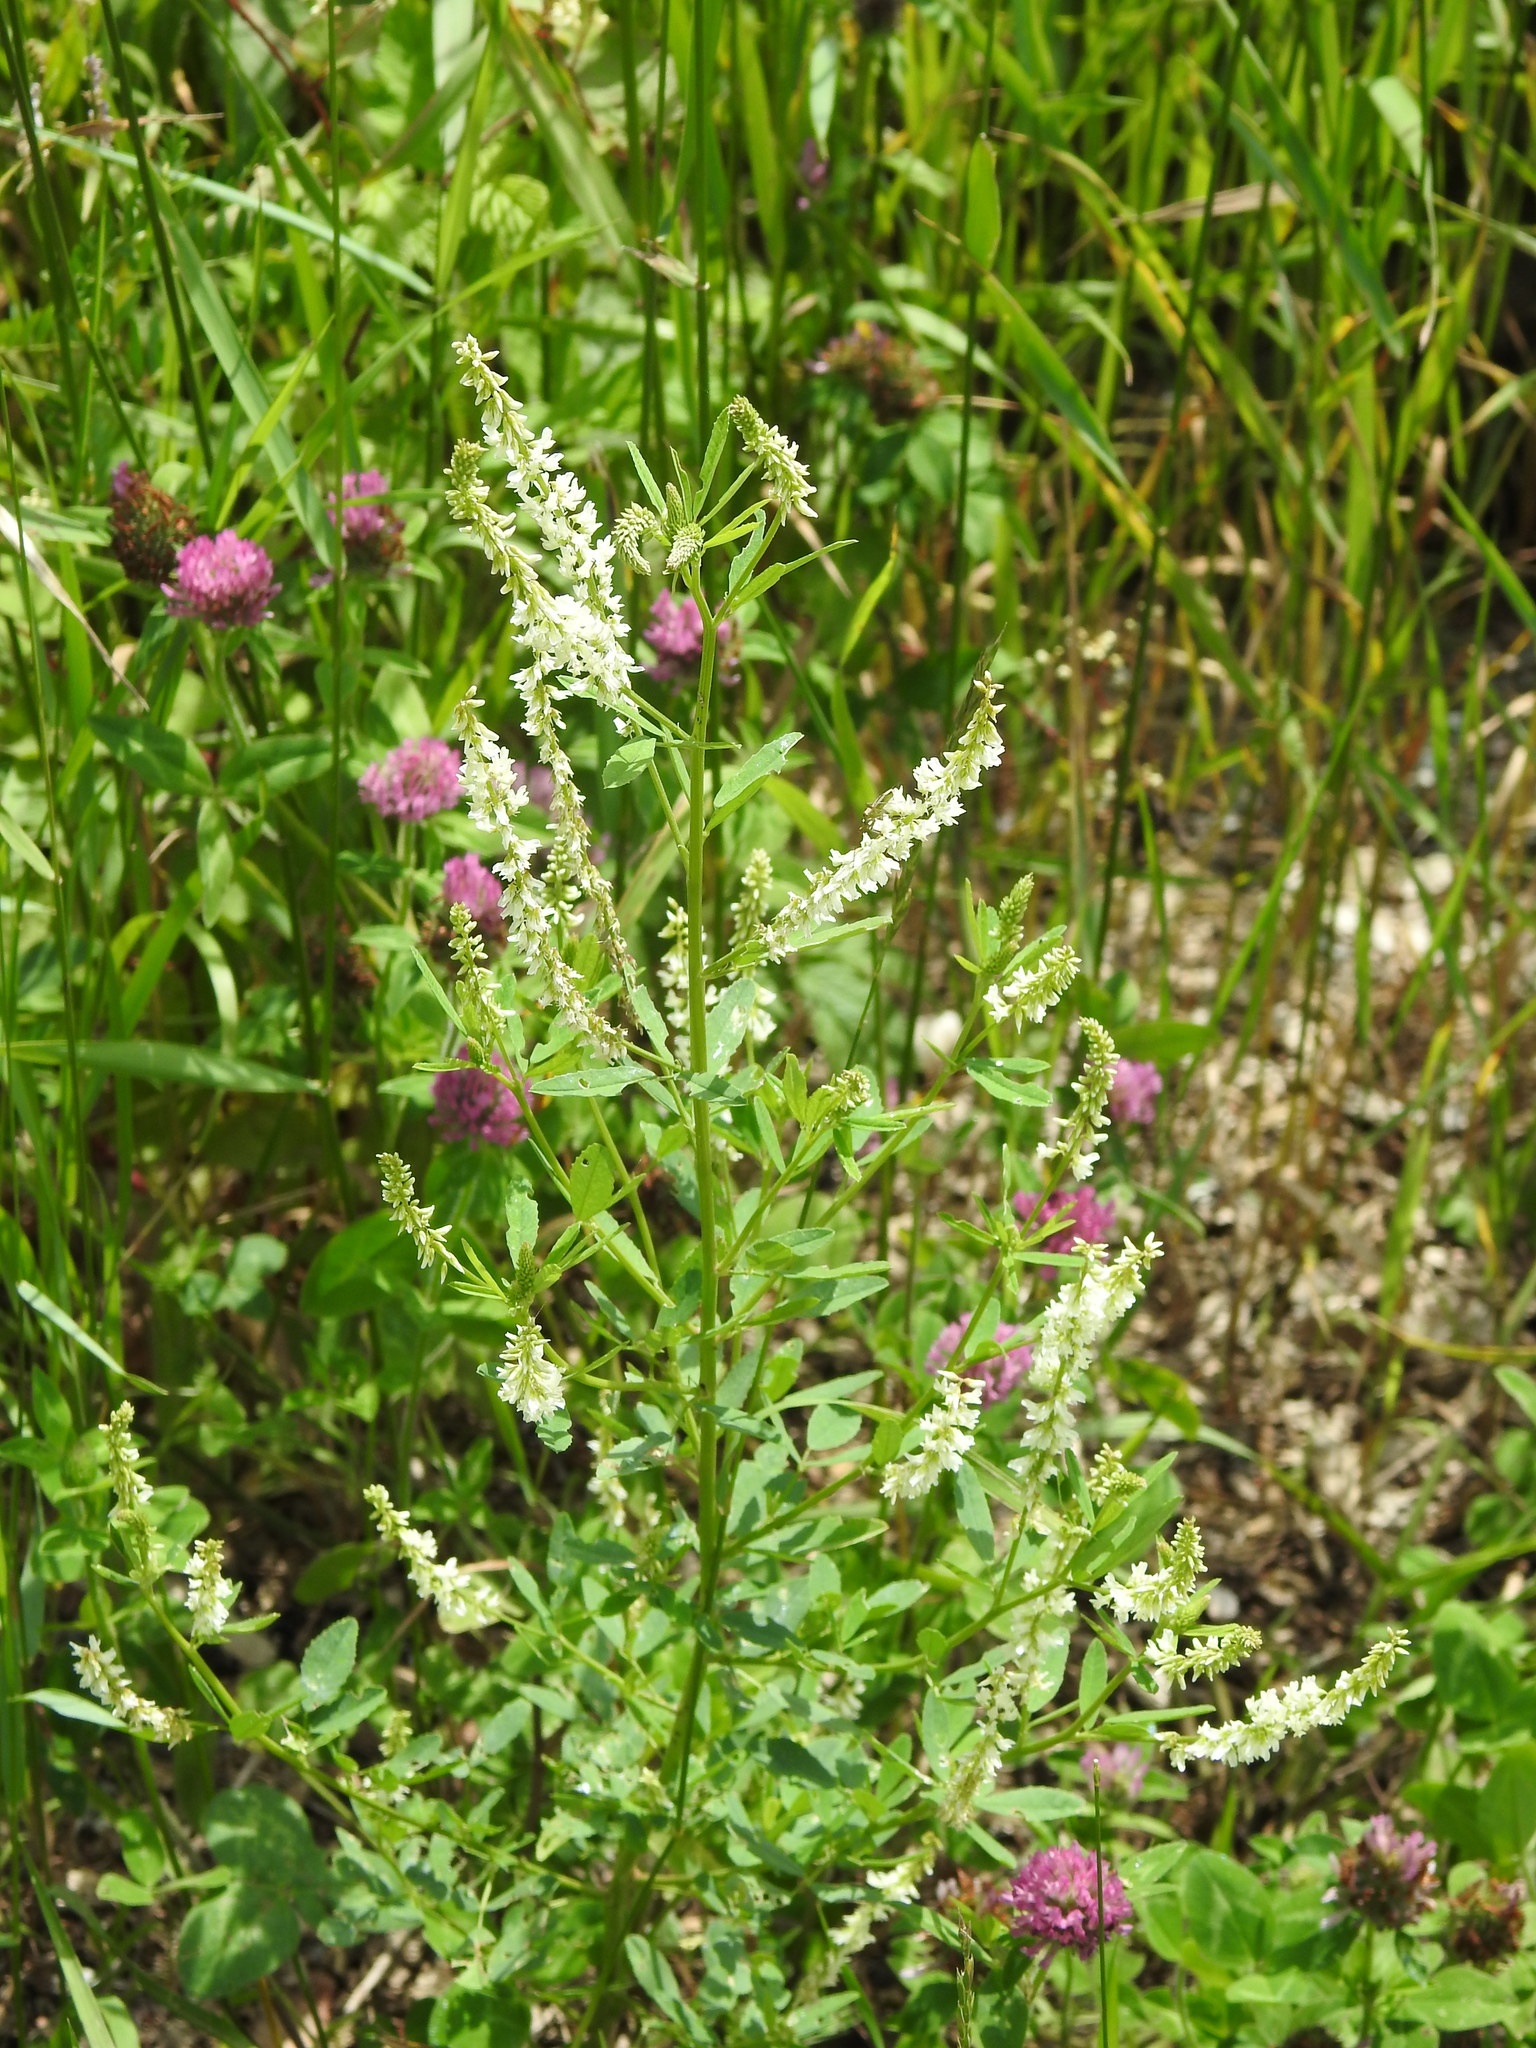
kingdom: Plantae
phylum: Tracheophyta
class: Magnoliopsida
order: Fabales
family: Fabaceae
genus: Melilotus
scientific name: Melilotus albus
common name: White melilot
